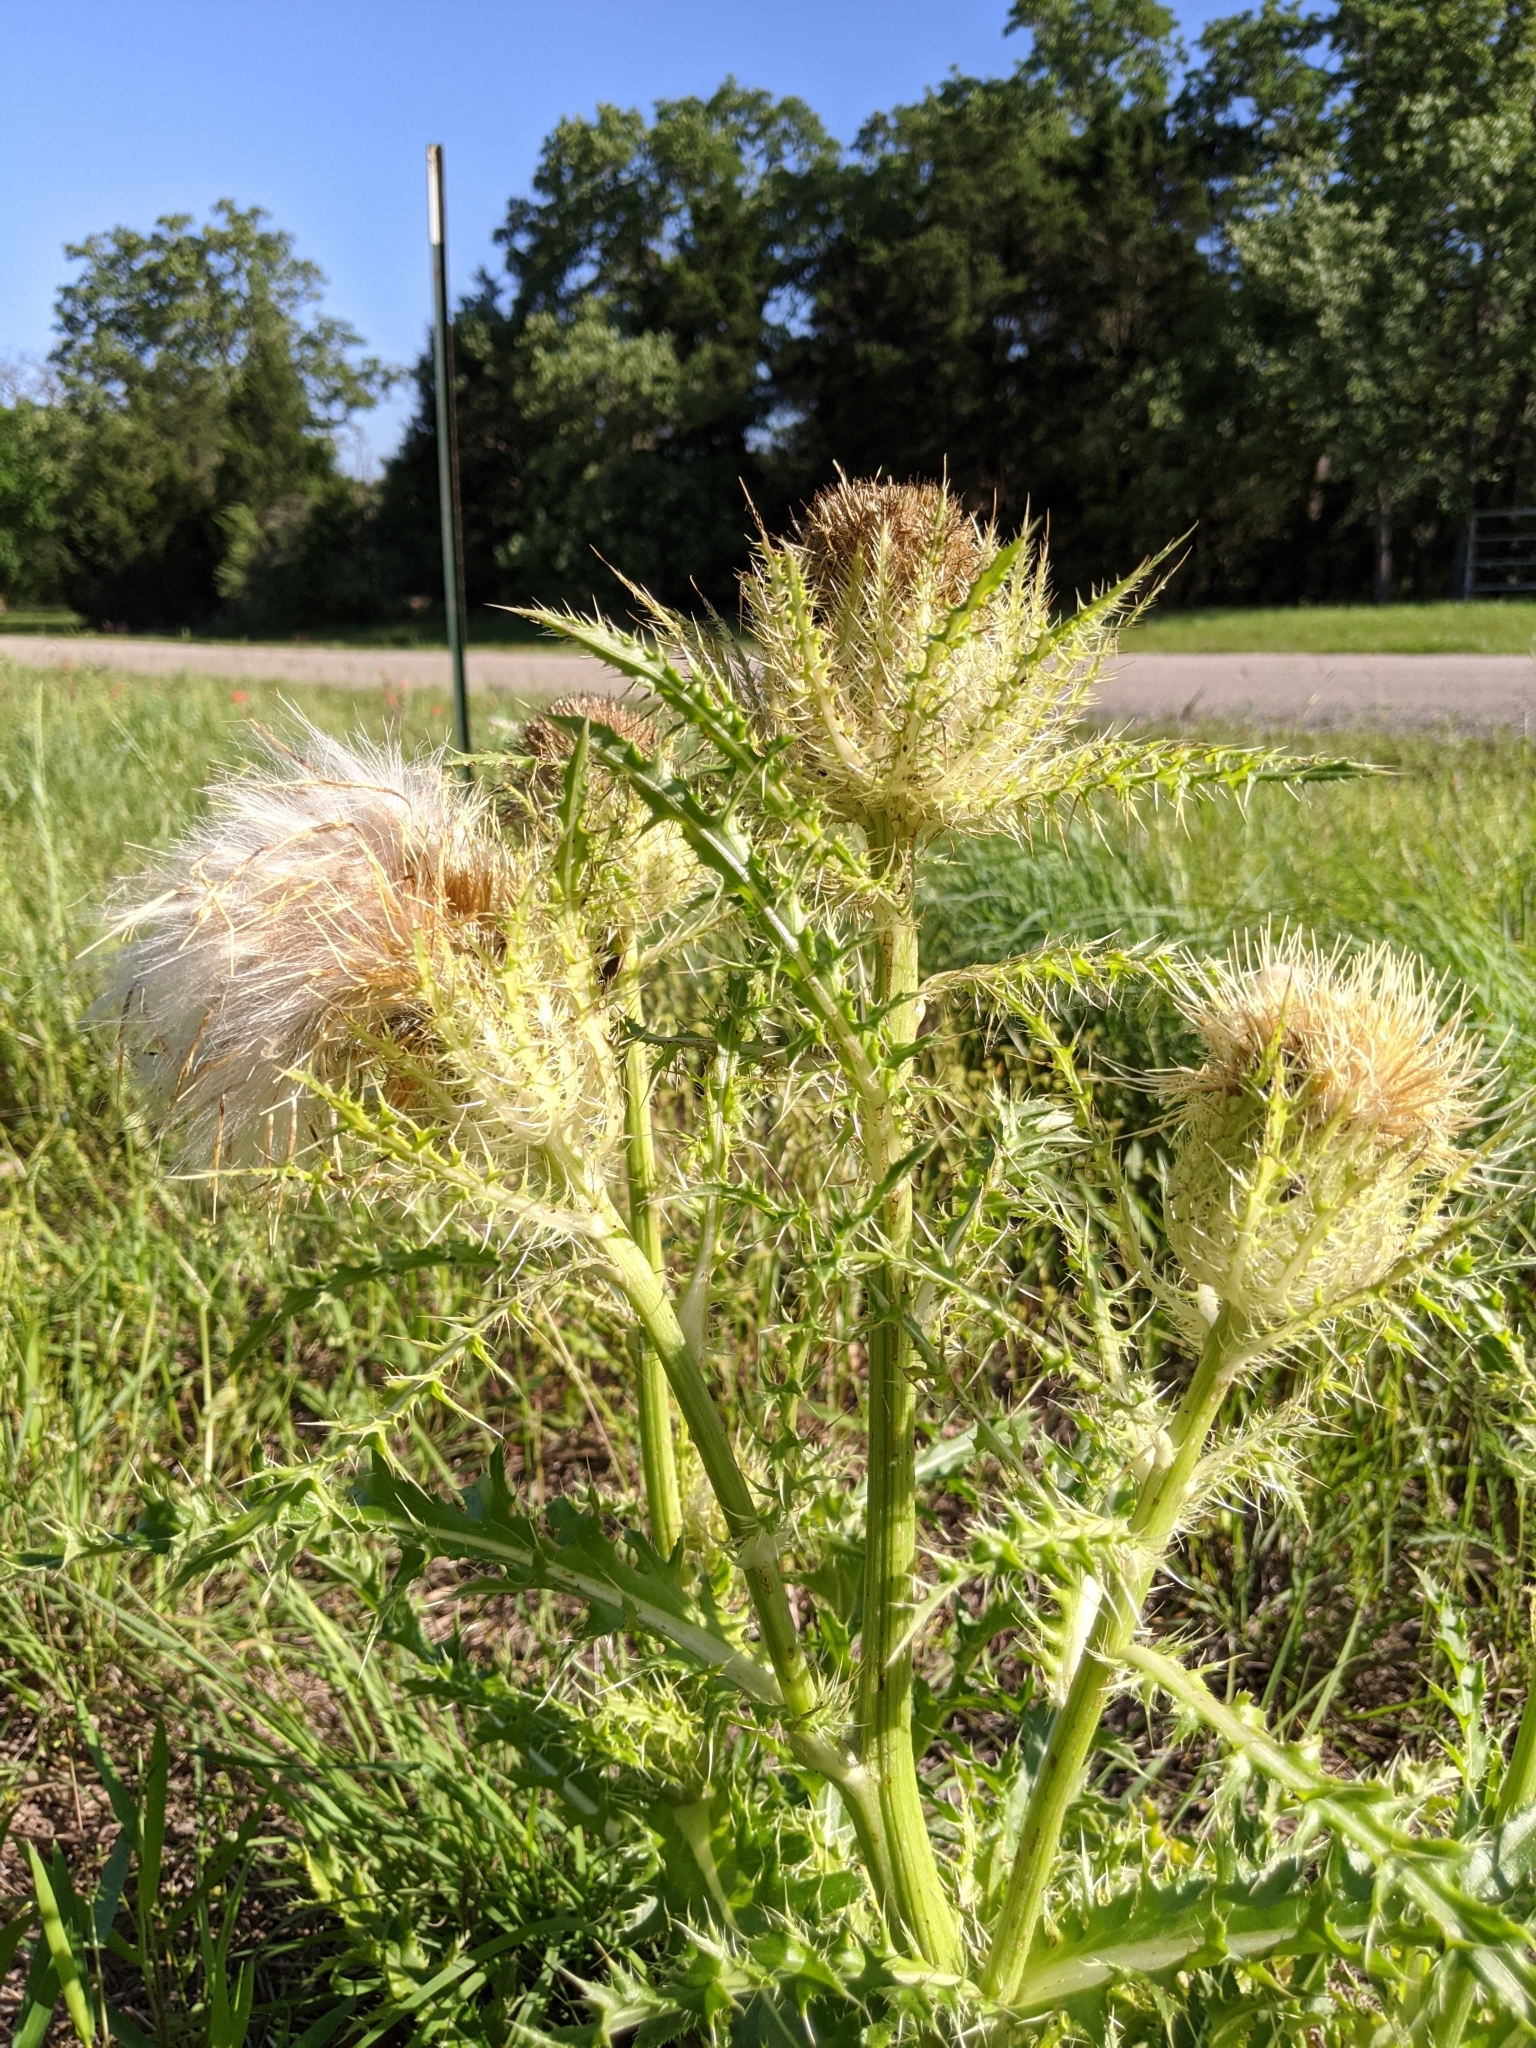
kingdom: Plantae
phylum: Tracheophyta
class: Magnoliopsida
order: Asterales
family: Asteraceae
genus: Cirsium
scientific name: Cirsium horridulum
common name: Bristly thistle
